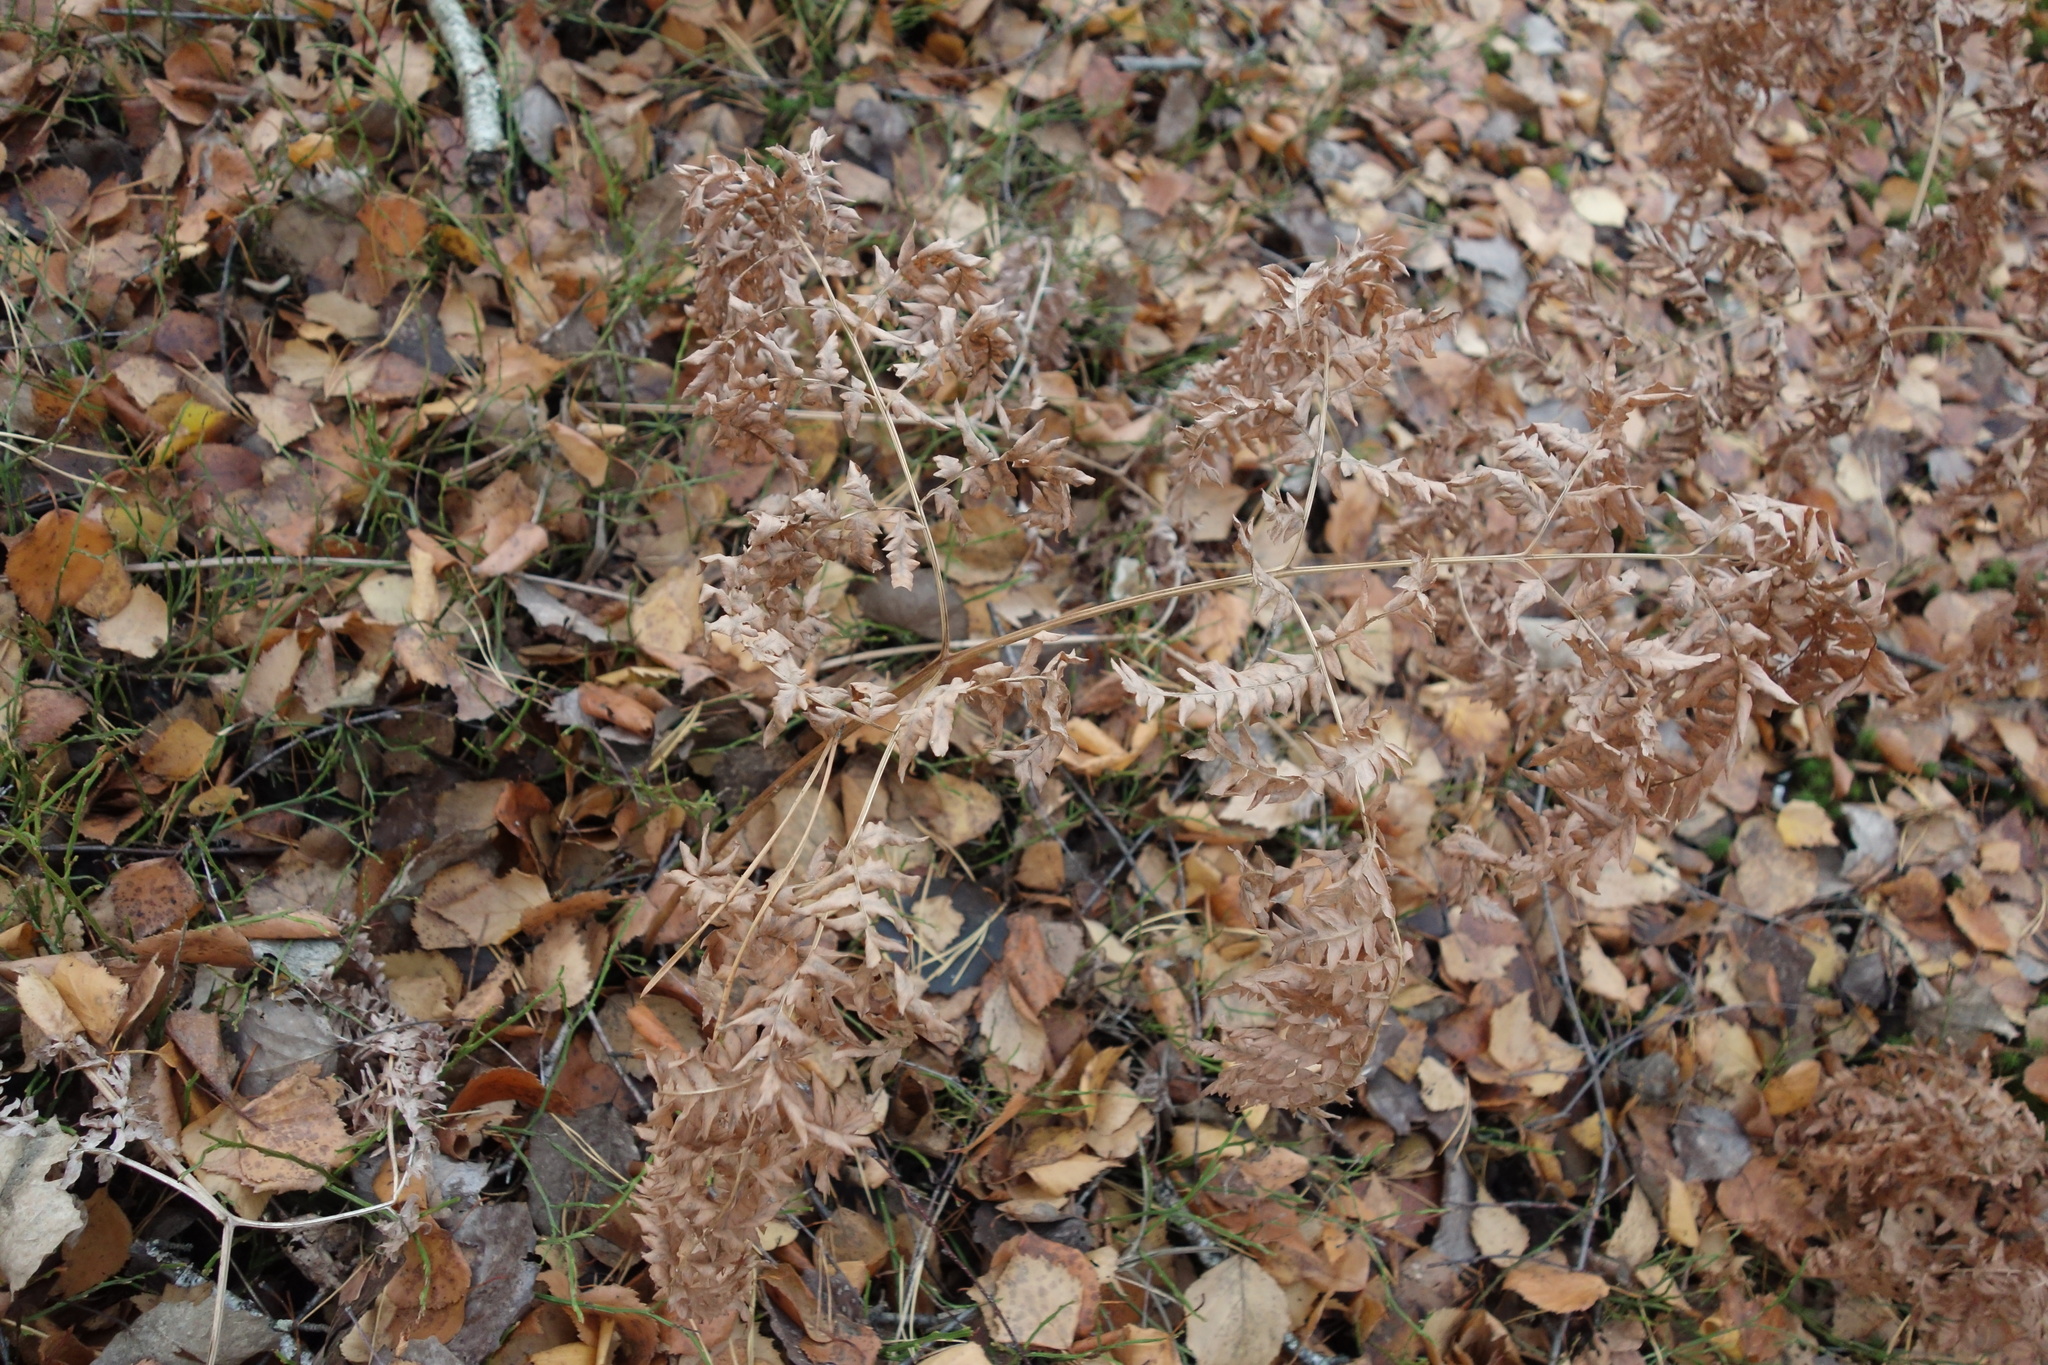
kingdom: Plantae
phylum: Tracheophyta
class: Polypodiopsida
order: Polypodiales
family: Dennstaedtiaceae
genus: Pteridium
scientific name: Pteridium aquilinum
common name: Bracken
